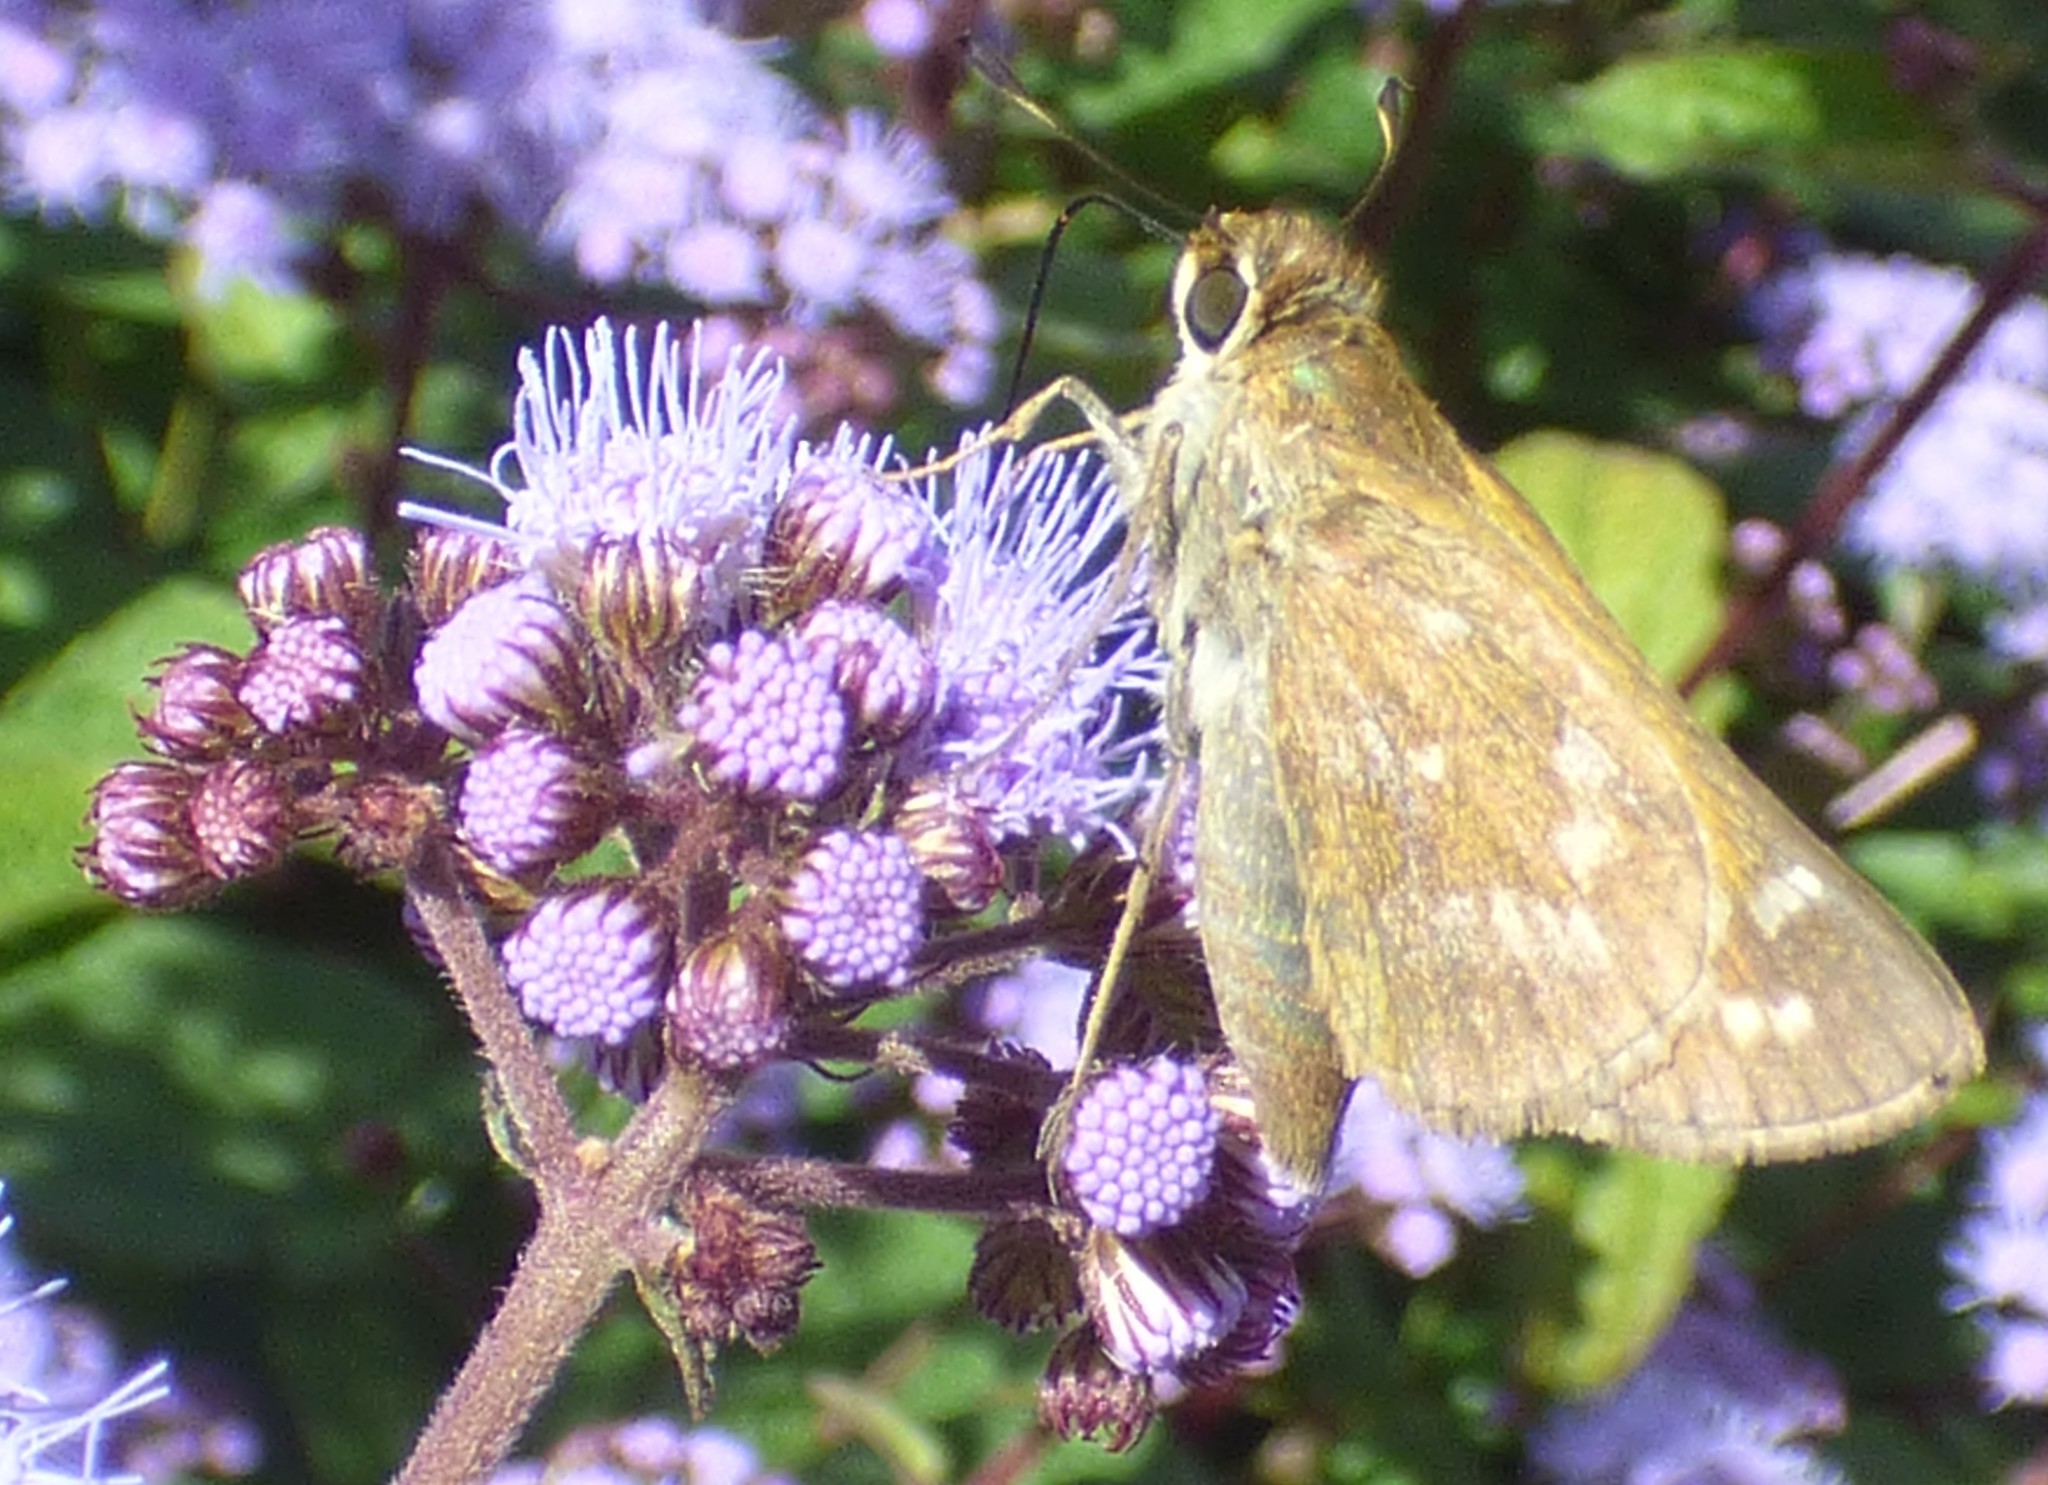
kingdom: Animalia
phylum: Arthropoda
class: Insecta
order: Lepidoptera
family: Hesperiidae
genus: Atalopedes
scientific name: Atalopedes
